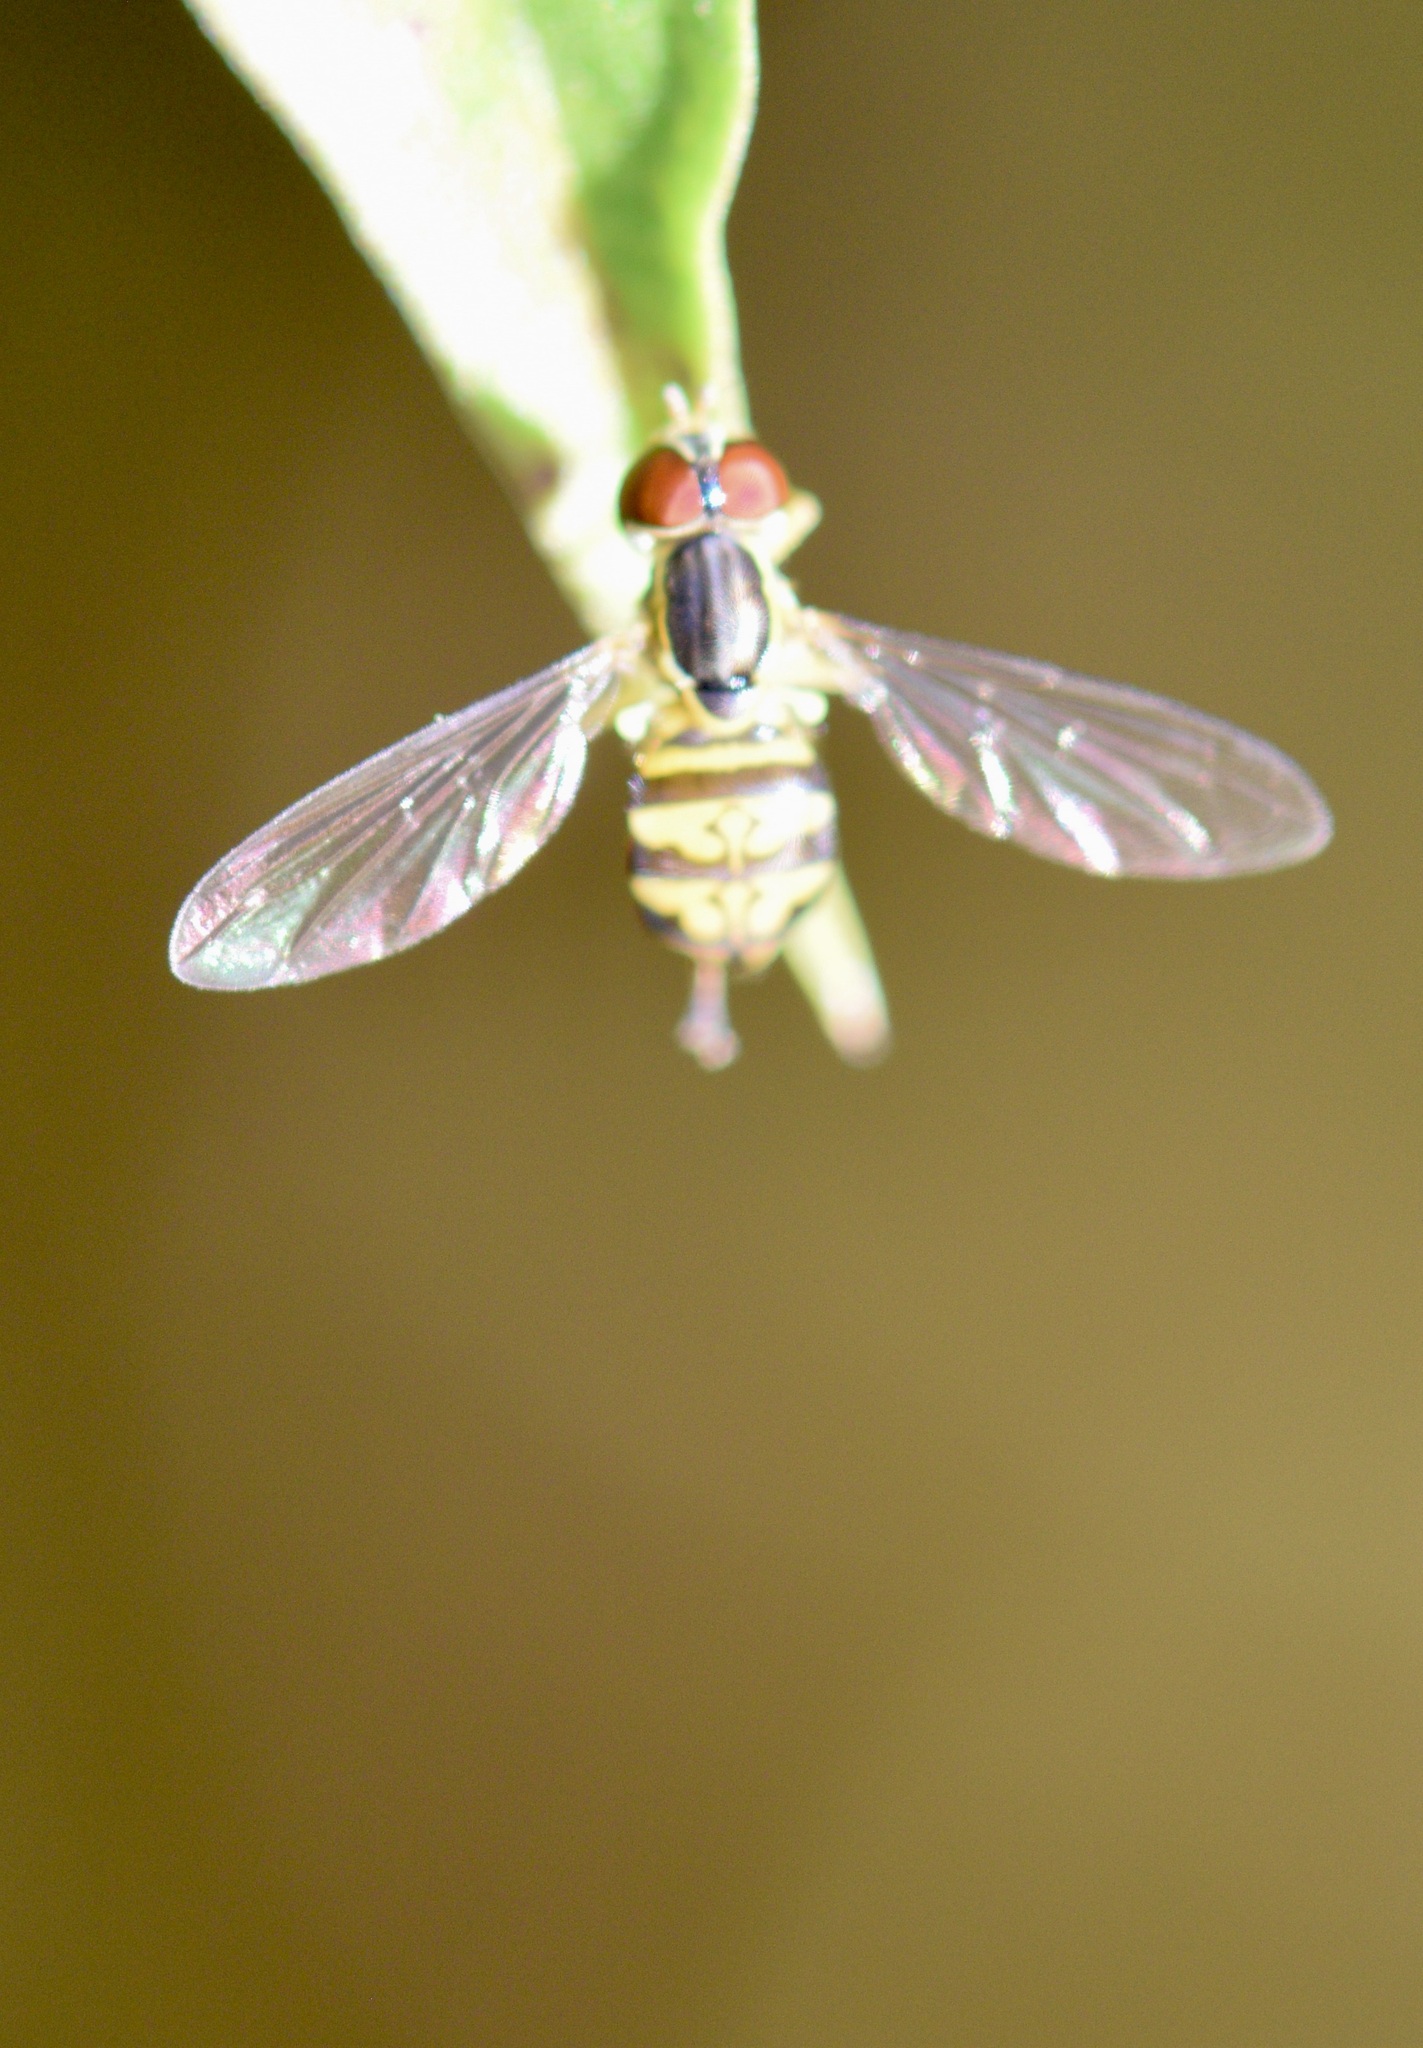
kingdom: Animalia
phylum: Arthropoda
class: Insecta
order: Diptera
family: Syrphidae
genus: Toxomerus
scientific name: Toxomerus geminatus
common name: Eastern calligrapher
